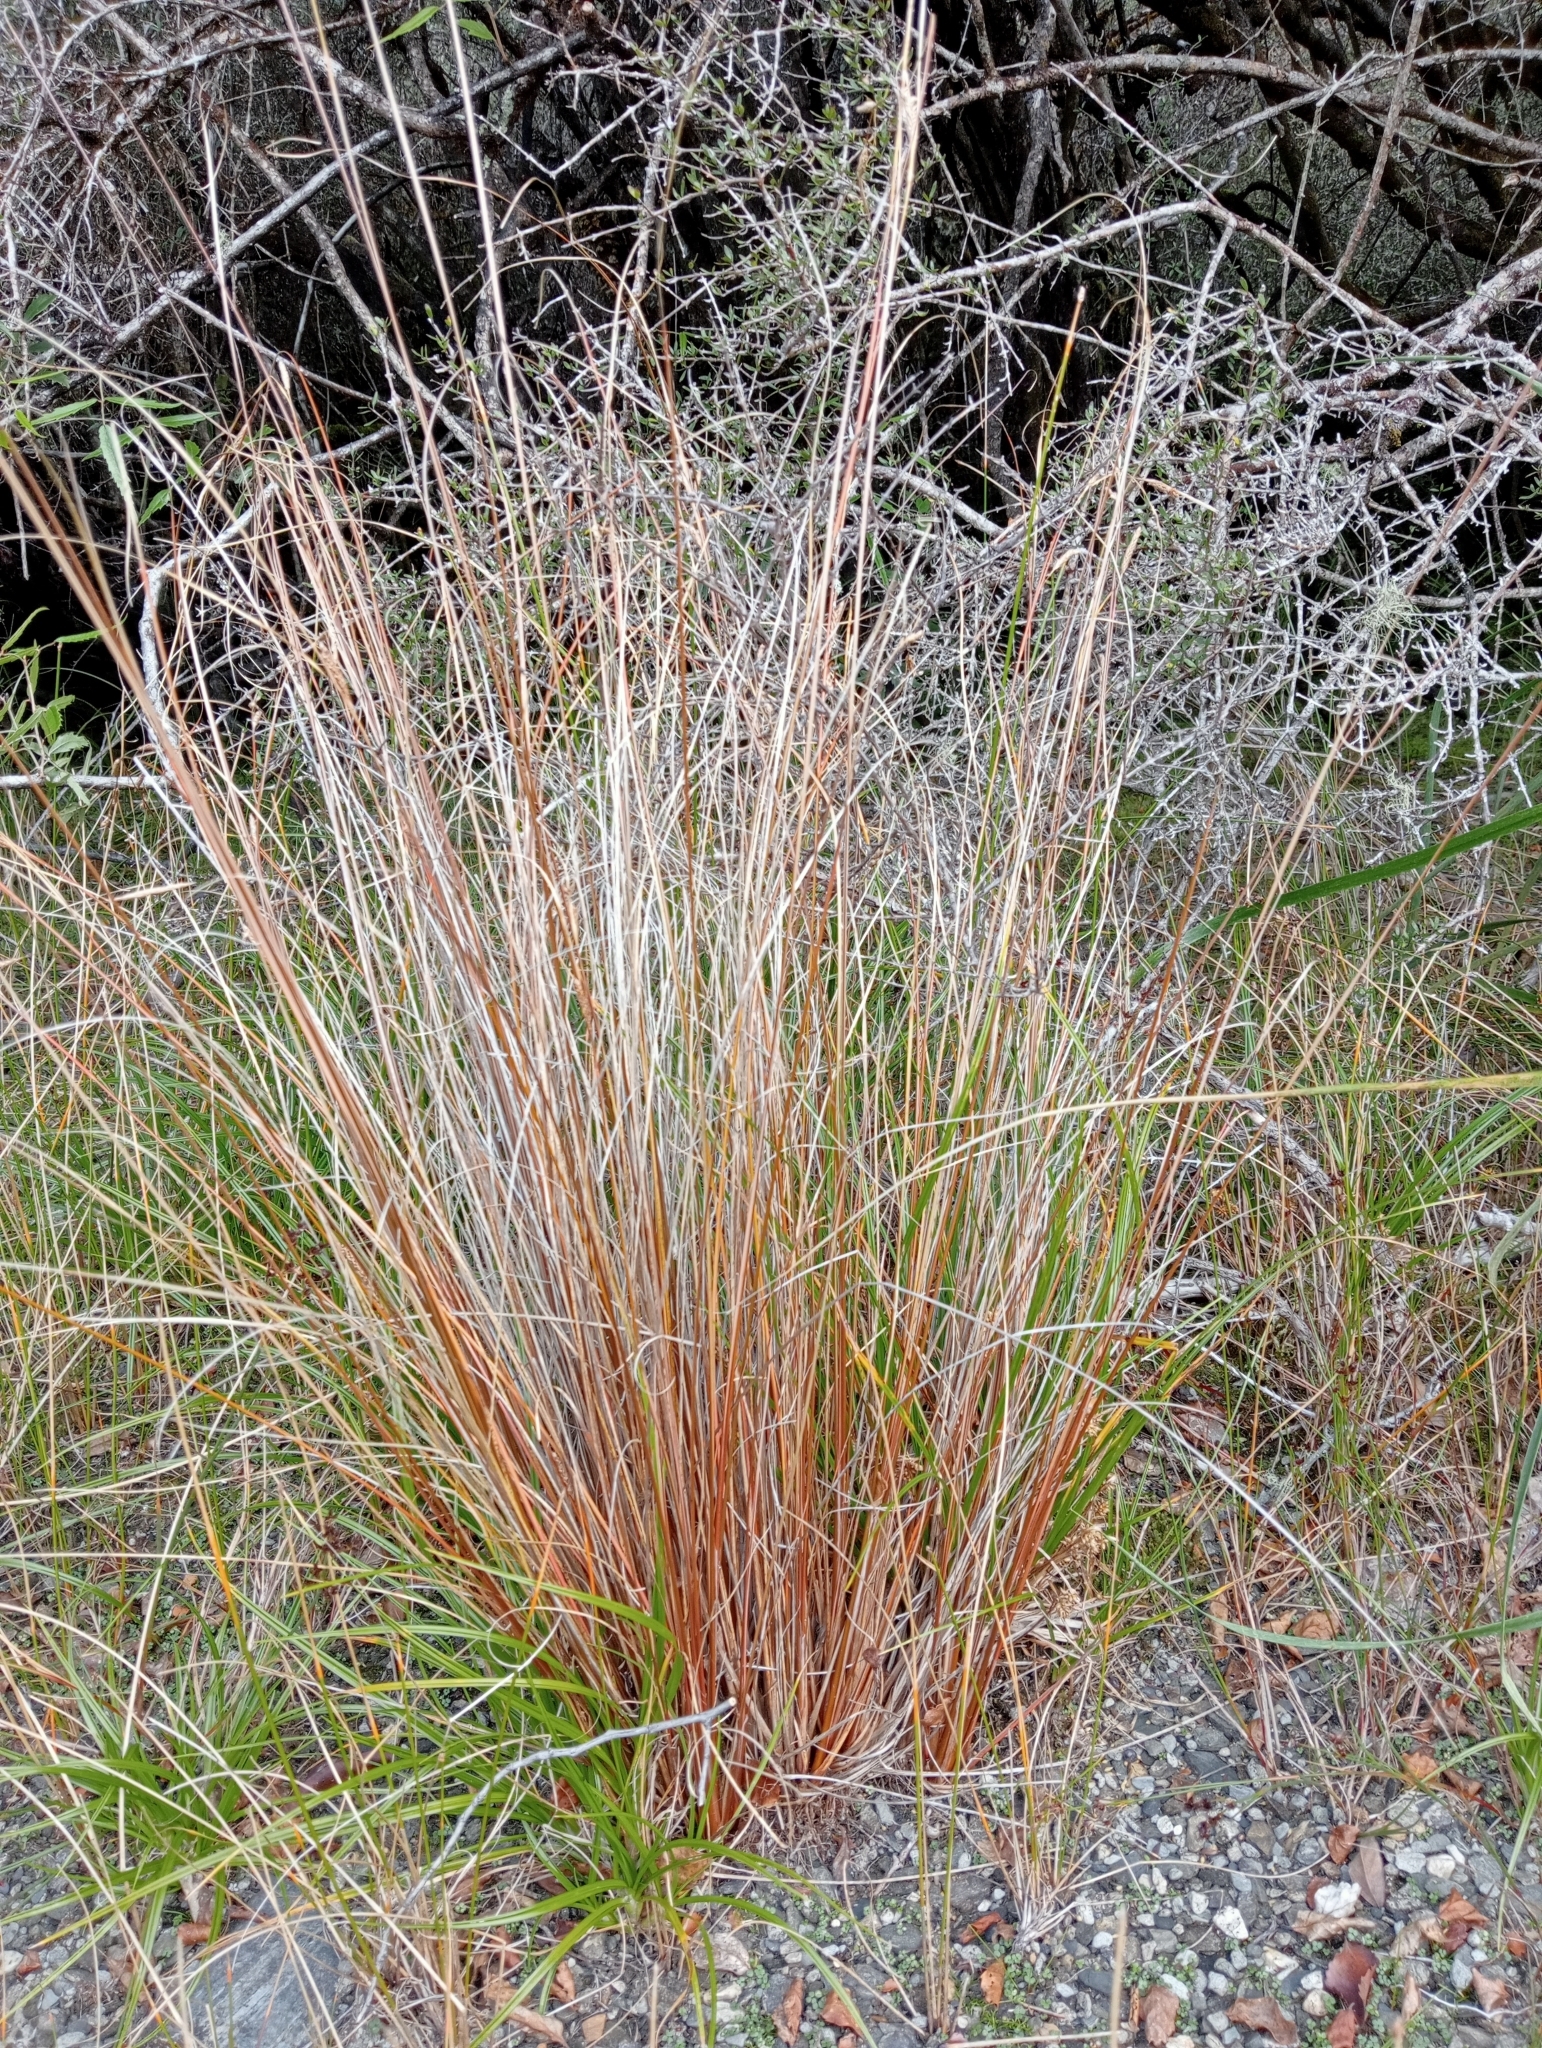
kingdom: Plantae
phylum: Tracheophyta
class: Liliopsida
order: Poales
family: Cyperaceae
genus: Carex
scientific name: Carex buchananii
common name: Leatherleaf sedge
